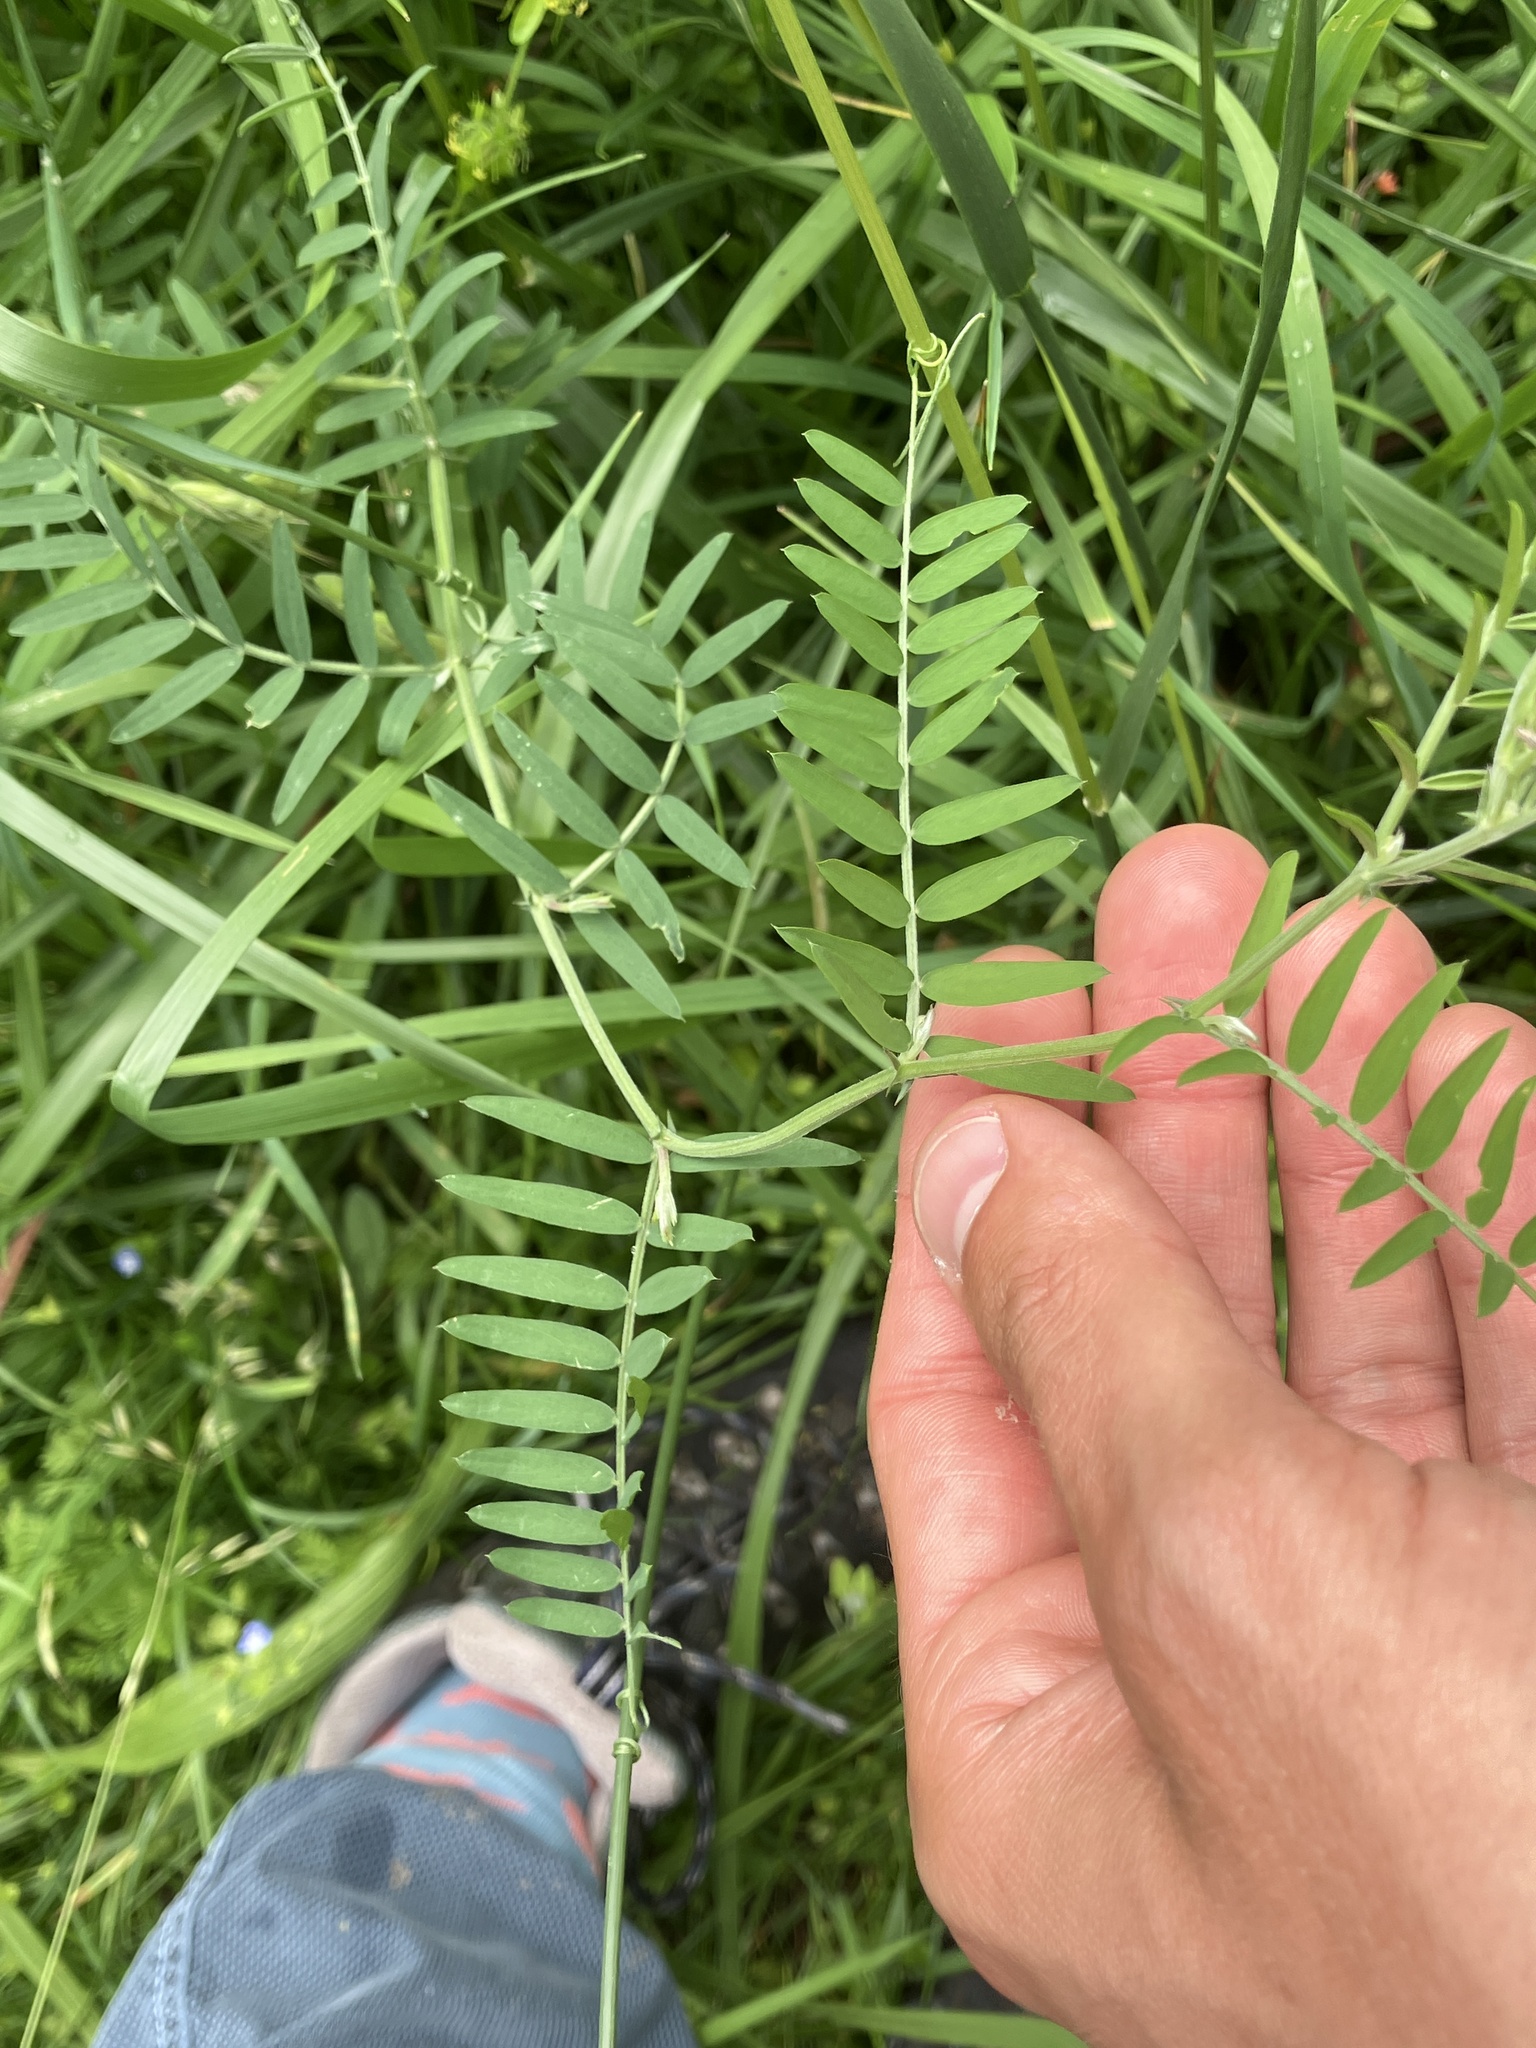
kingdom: Plantae
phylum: Tracheophyta
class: Magnoliopsida
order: Fabales
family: Fabaceae
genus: Vicia
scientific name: Vicia cracca
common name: Bird vetch
